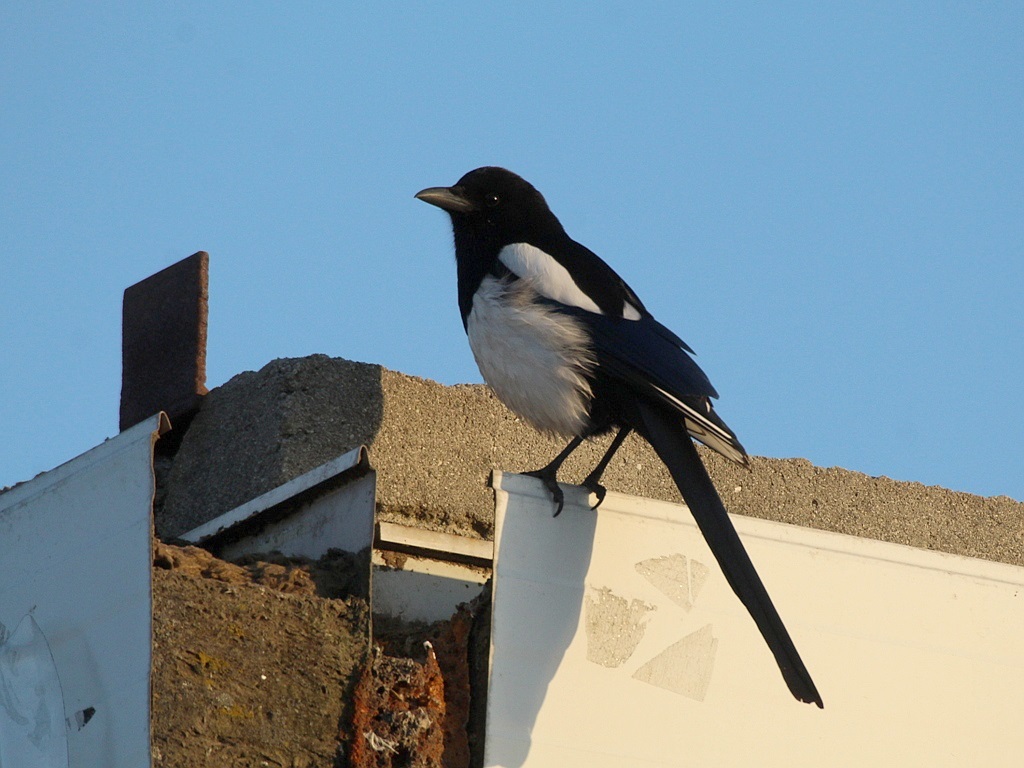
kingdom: Animalia
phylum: Chordata
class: Aves
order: Passeriformes
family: Corvidae
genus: Pica
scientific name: Pica serica
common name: Oriental magpie
